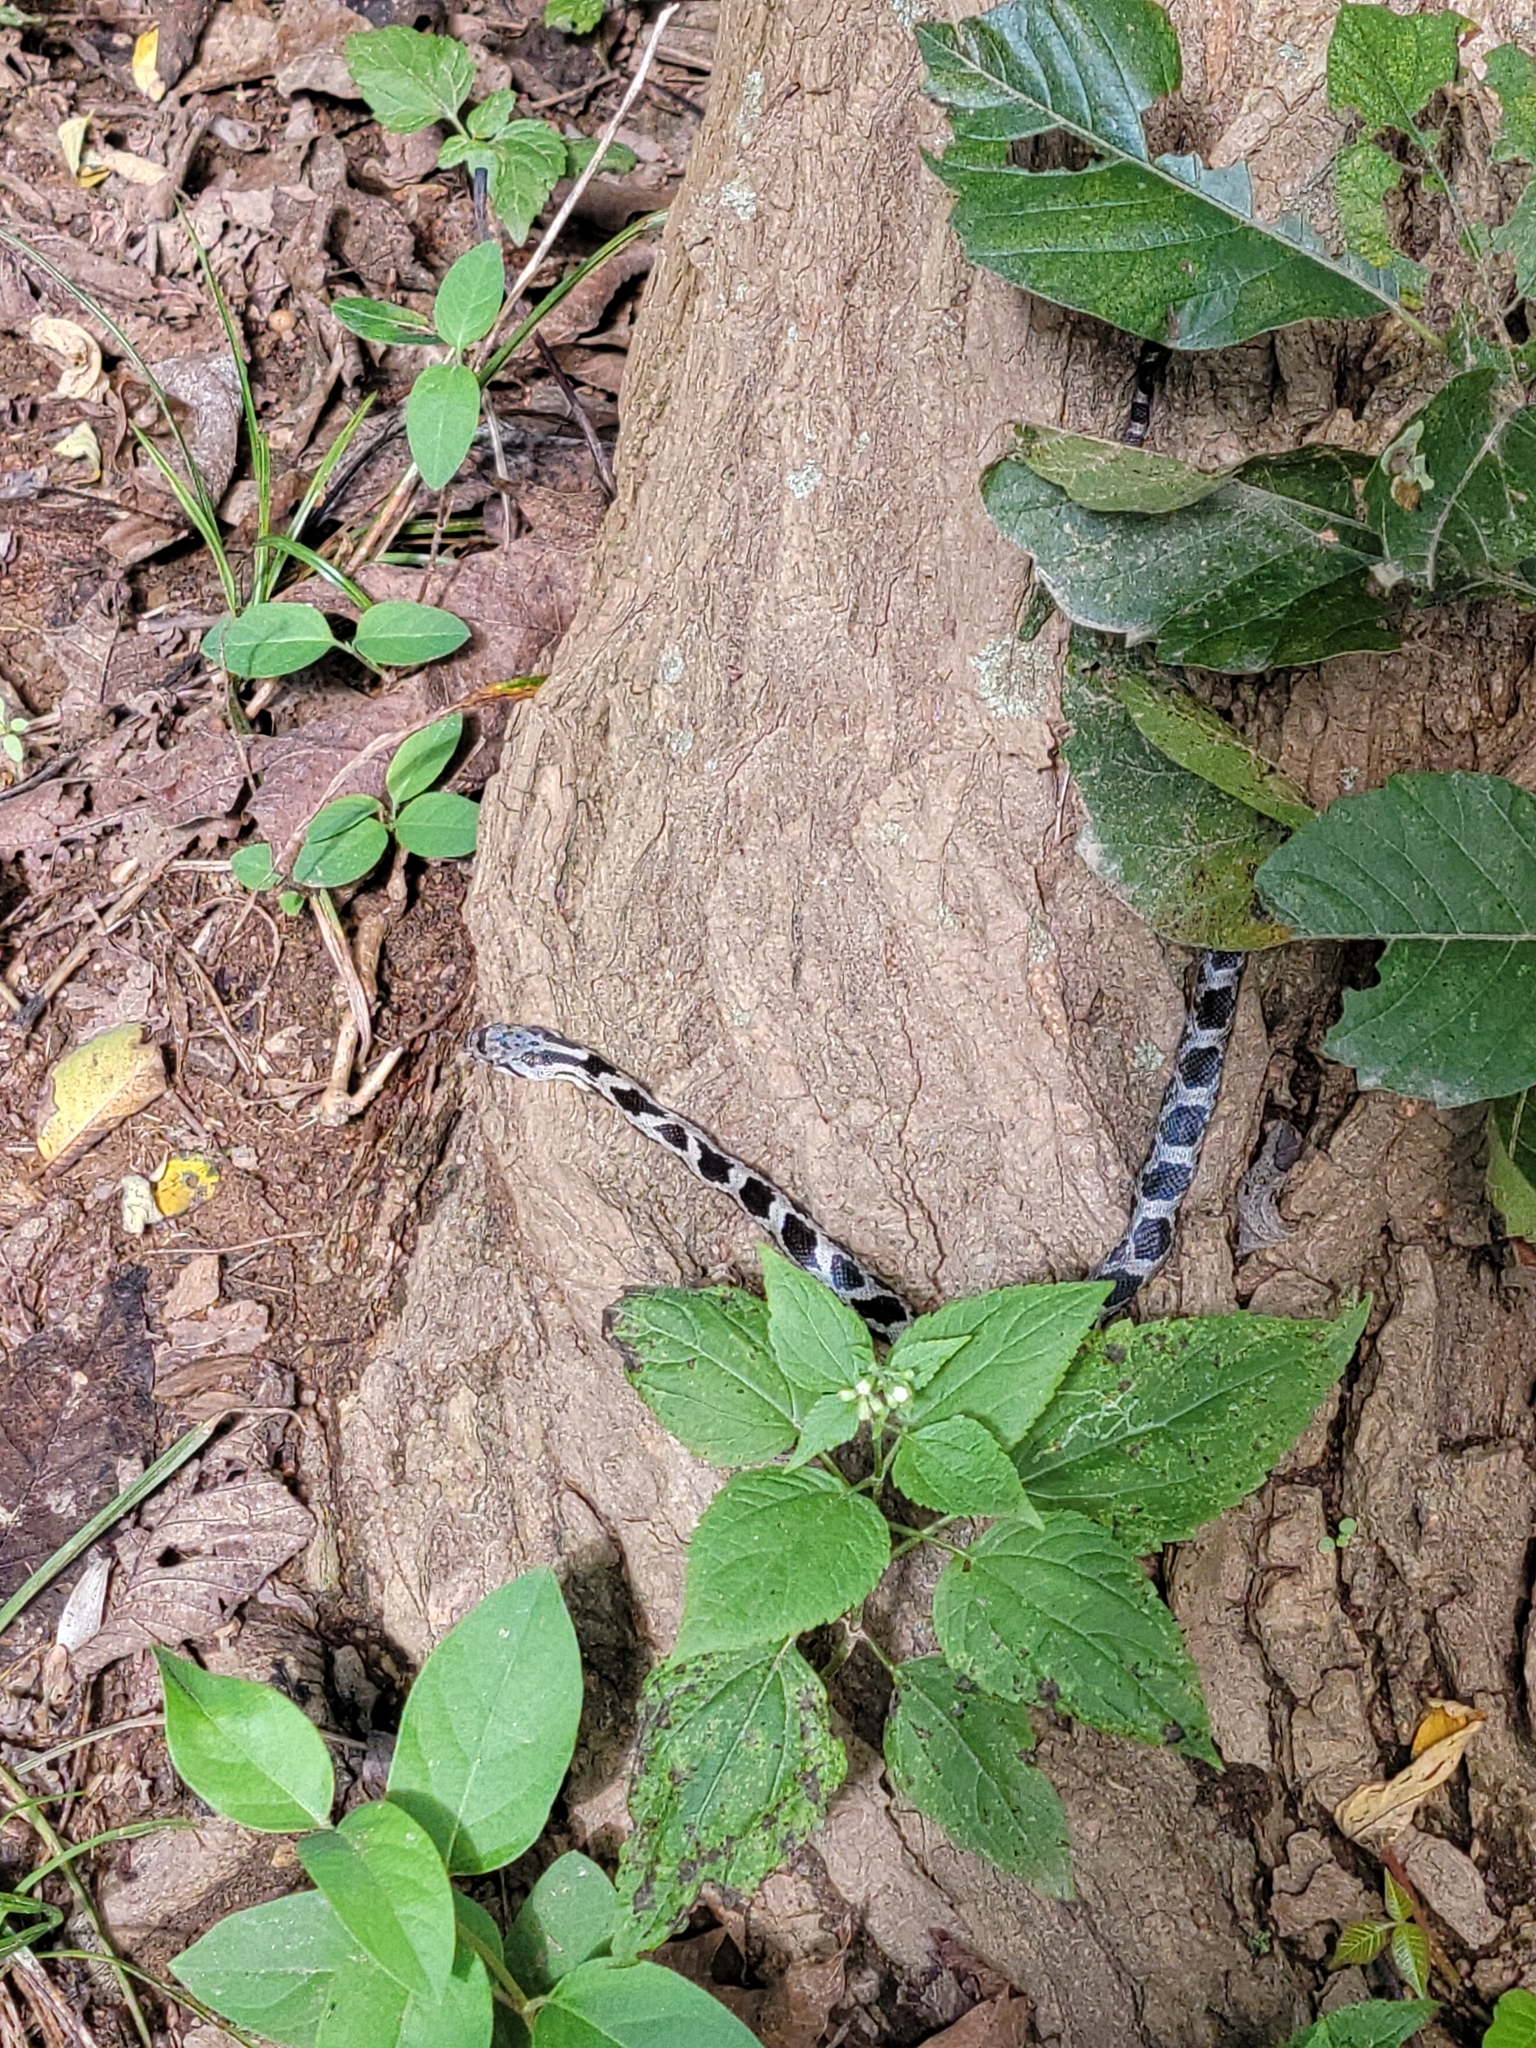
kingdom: Animalia
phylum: Chordata
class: Squamata
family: Colubridae
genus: Pantherophis
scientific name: Pantherophis spiloides
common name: Gray rat snake
